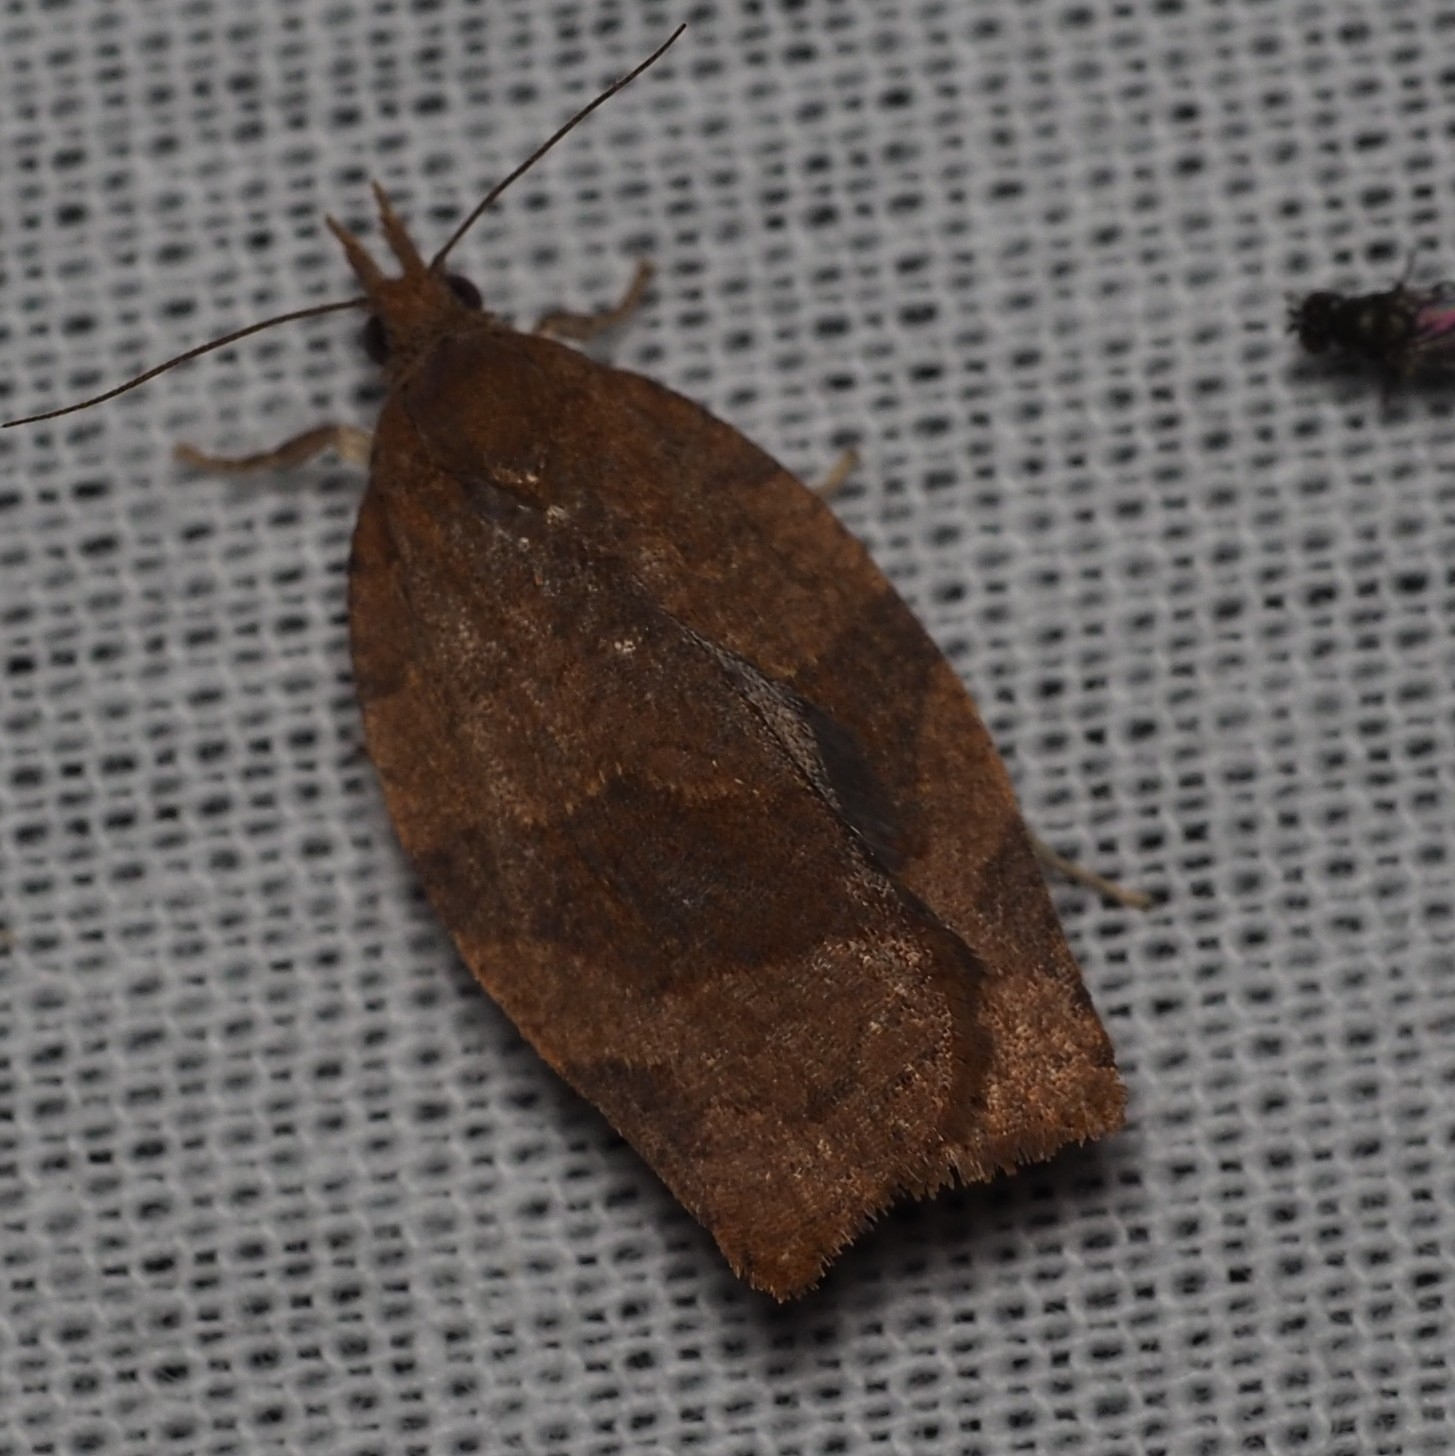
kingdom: Animalia
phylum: Arthropoda
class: Insecta
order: Lepidoptera
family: Tortricidae
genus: Pandemis
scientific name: Pandemis heparana
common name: Dark fruit-tree tortrix
